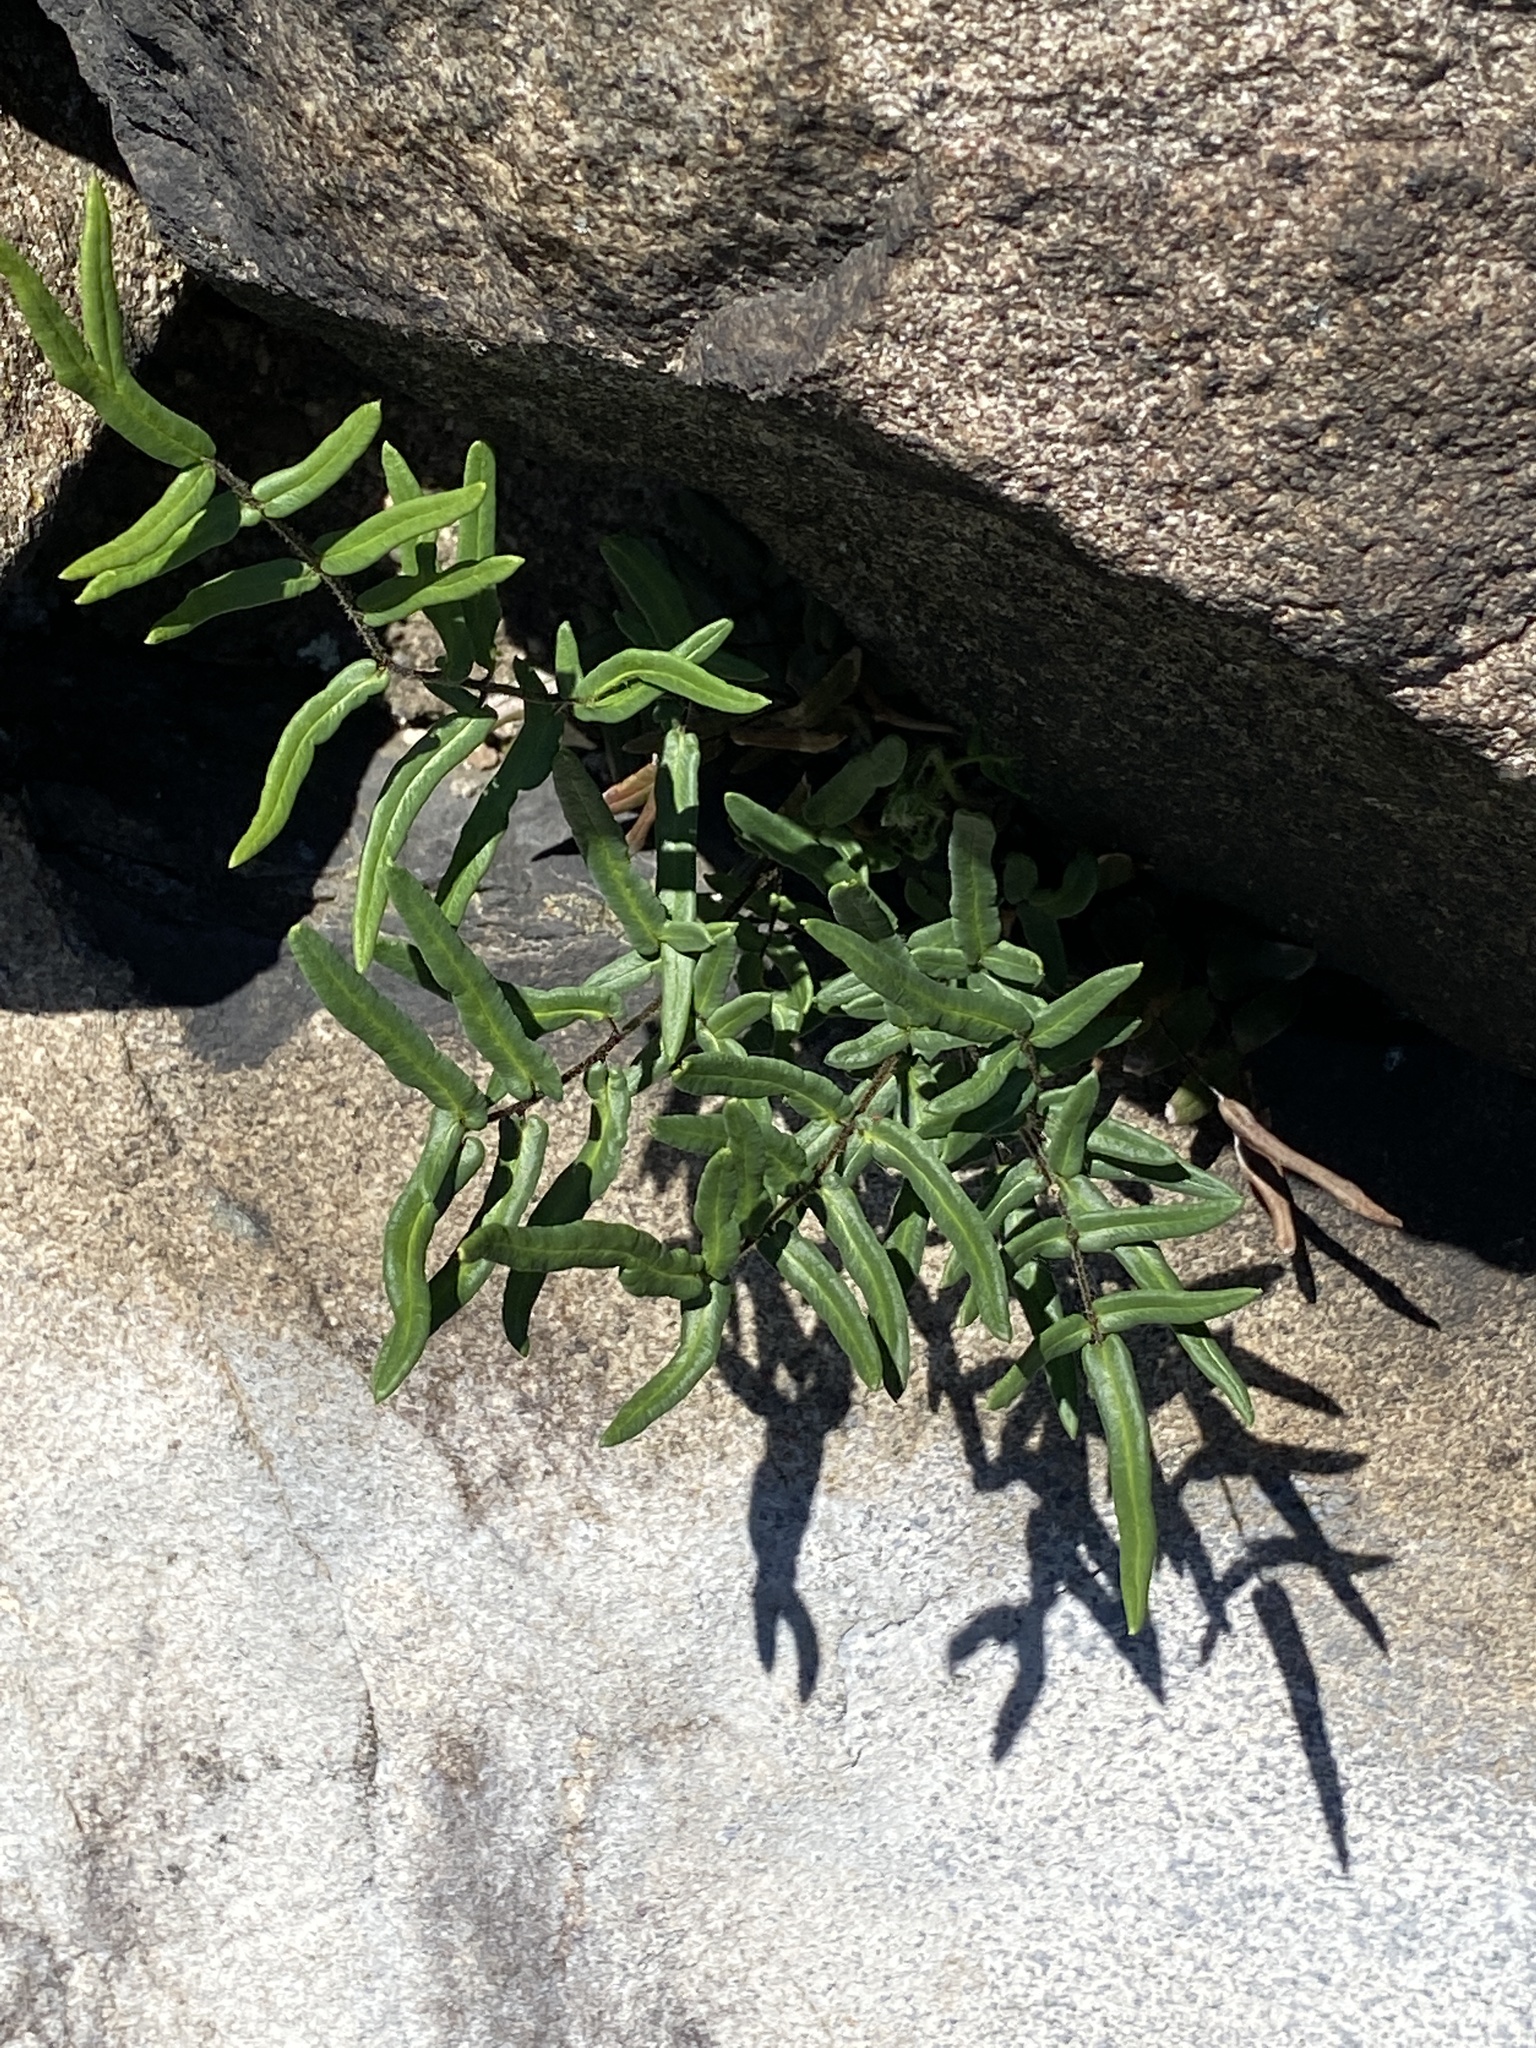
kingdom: Plantae
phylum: Tracheophyta
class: Polypodiopsida
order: Polypodiales
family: Pteridaceae
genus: Pellaea
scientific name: Pellaea atropurpurea
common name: Hairy cliffbrake
